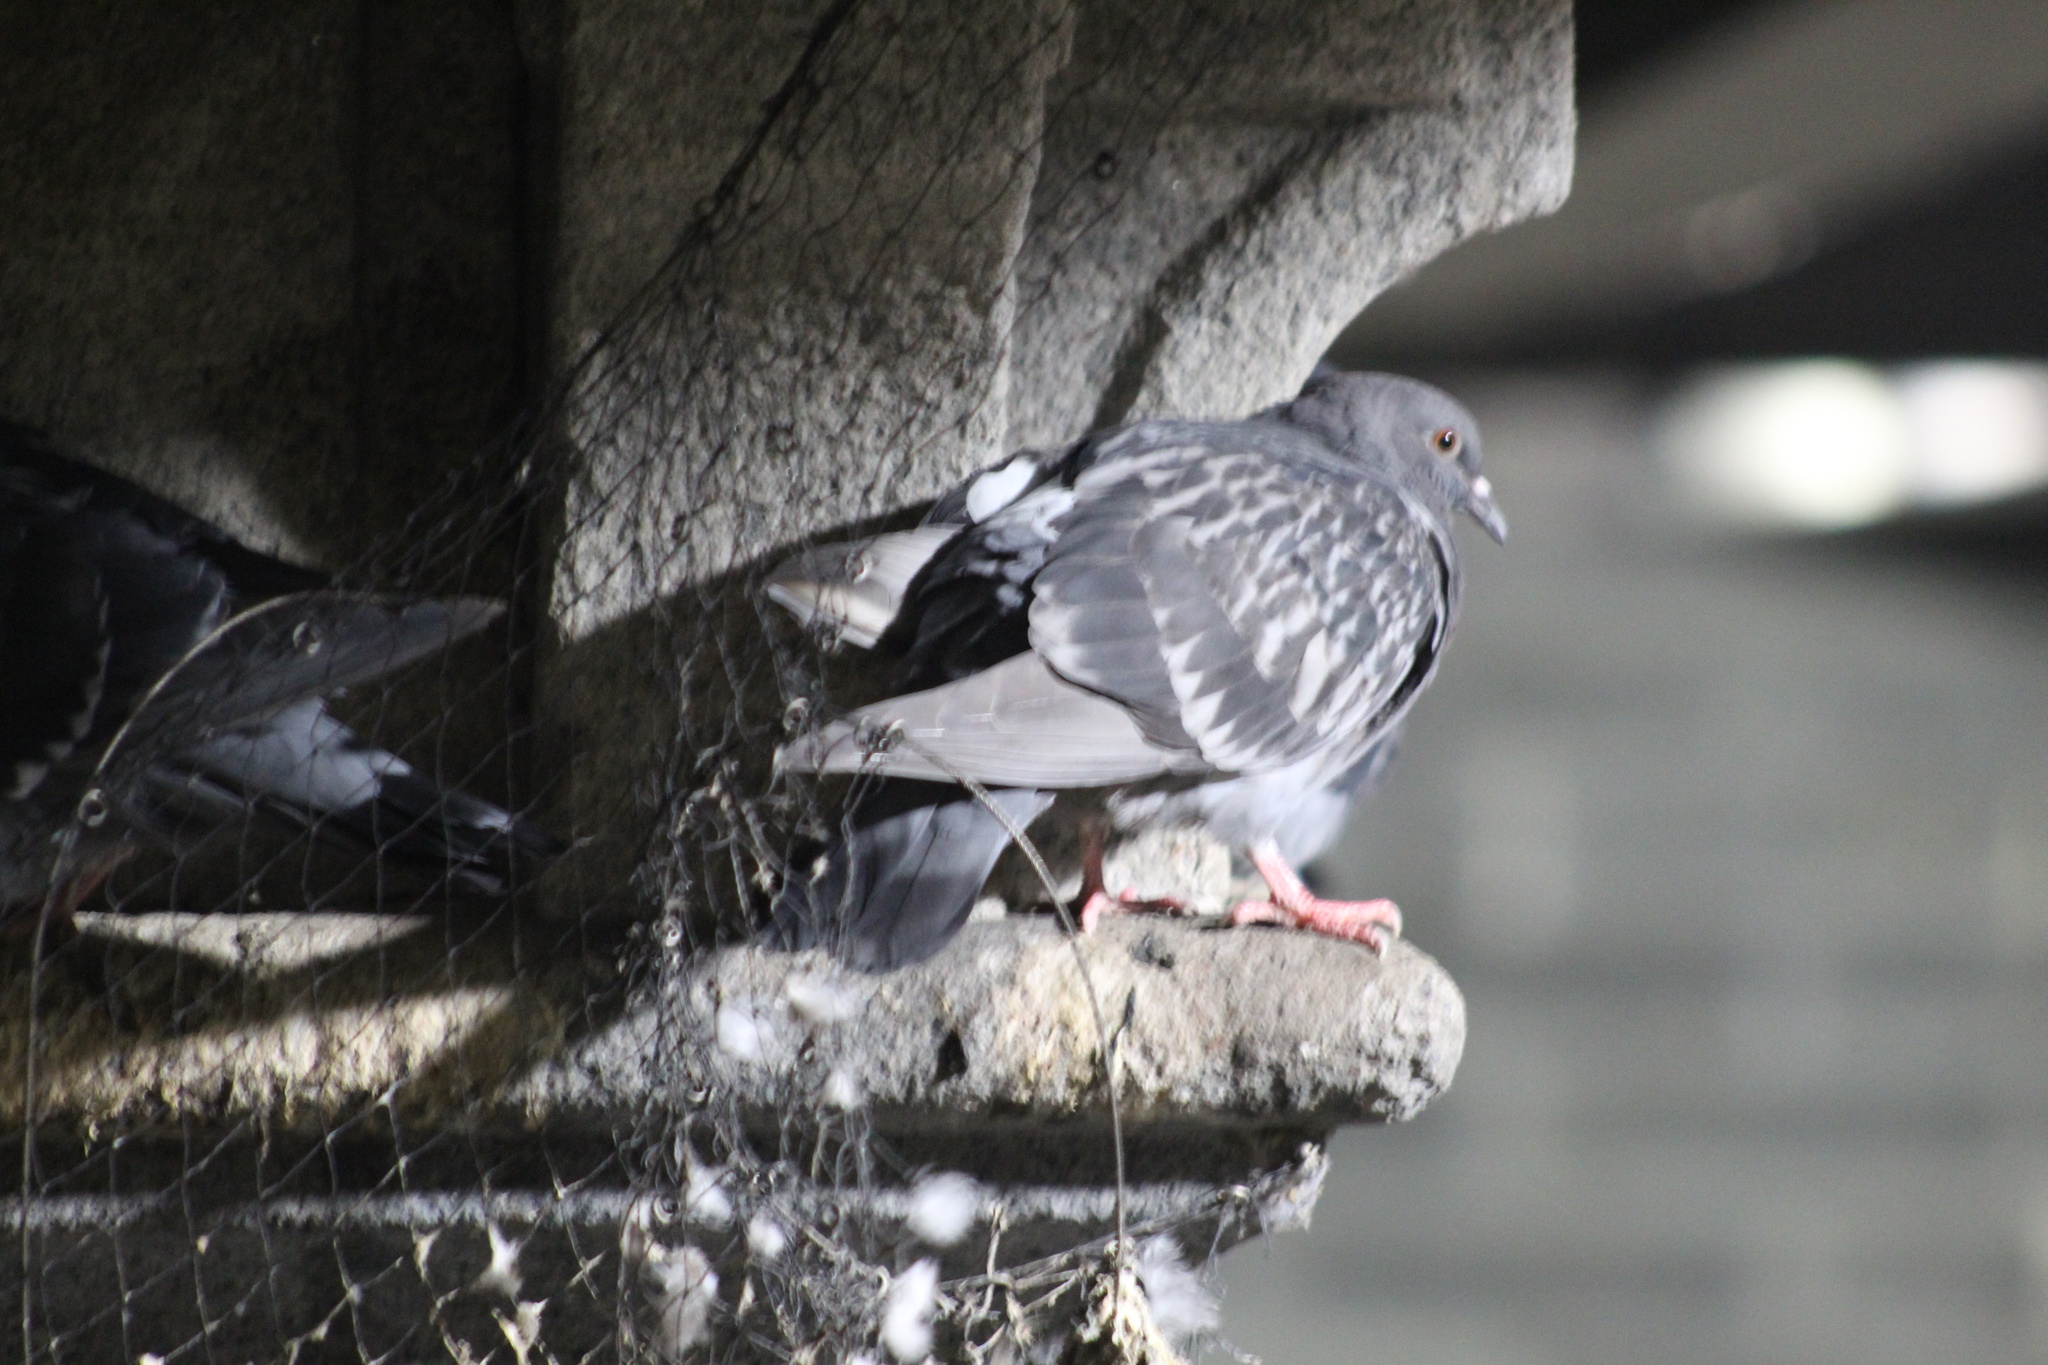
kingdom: Animalia
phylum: Chordata
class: Aves
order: Columbiformes
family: Columbidae
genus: Columba
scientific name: Columba livia
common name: Rock pigeon
